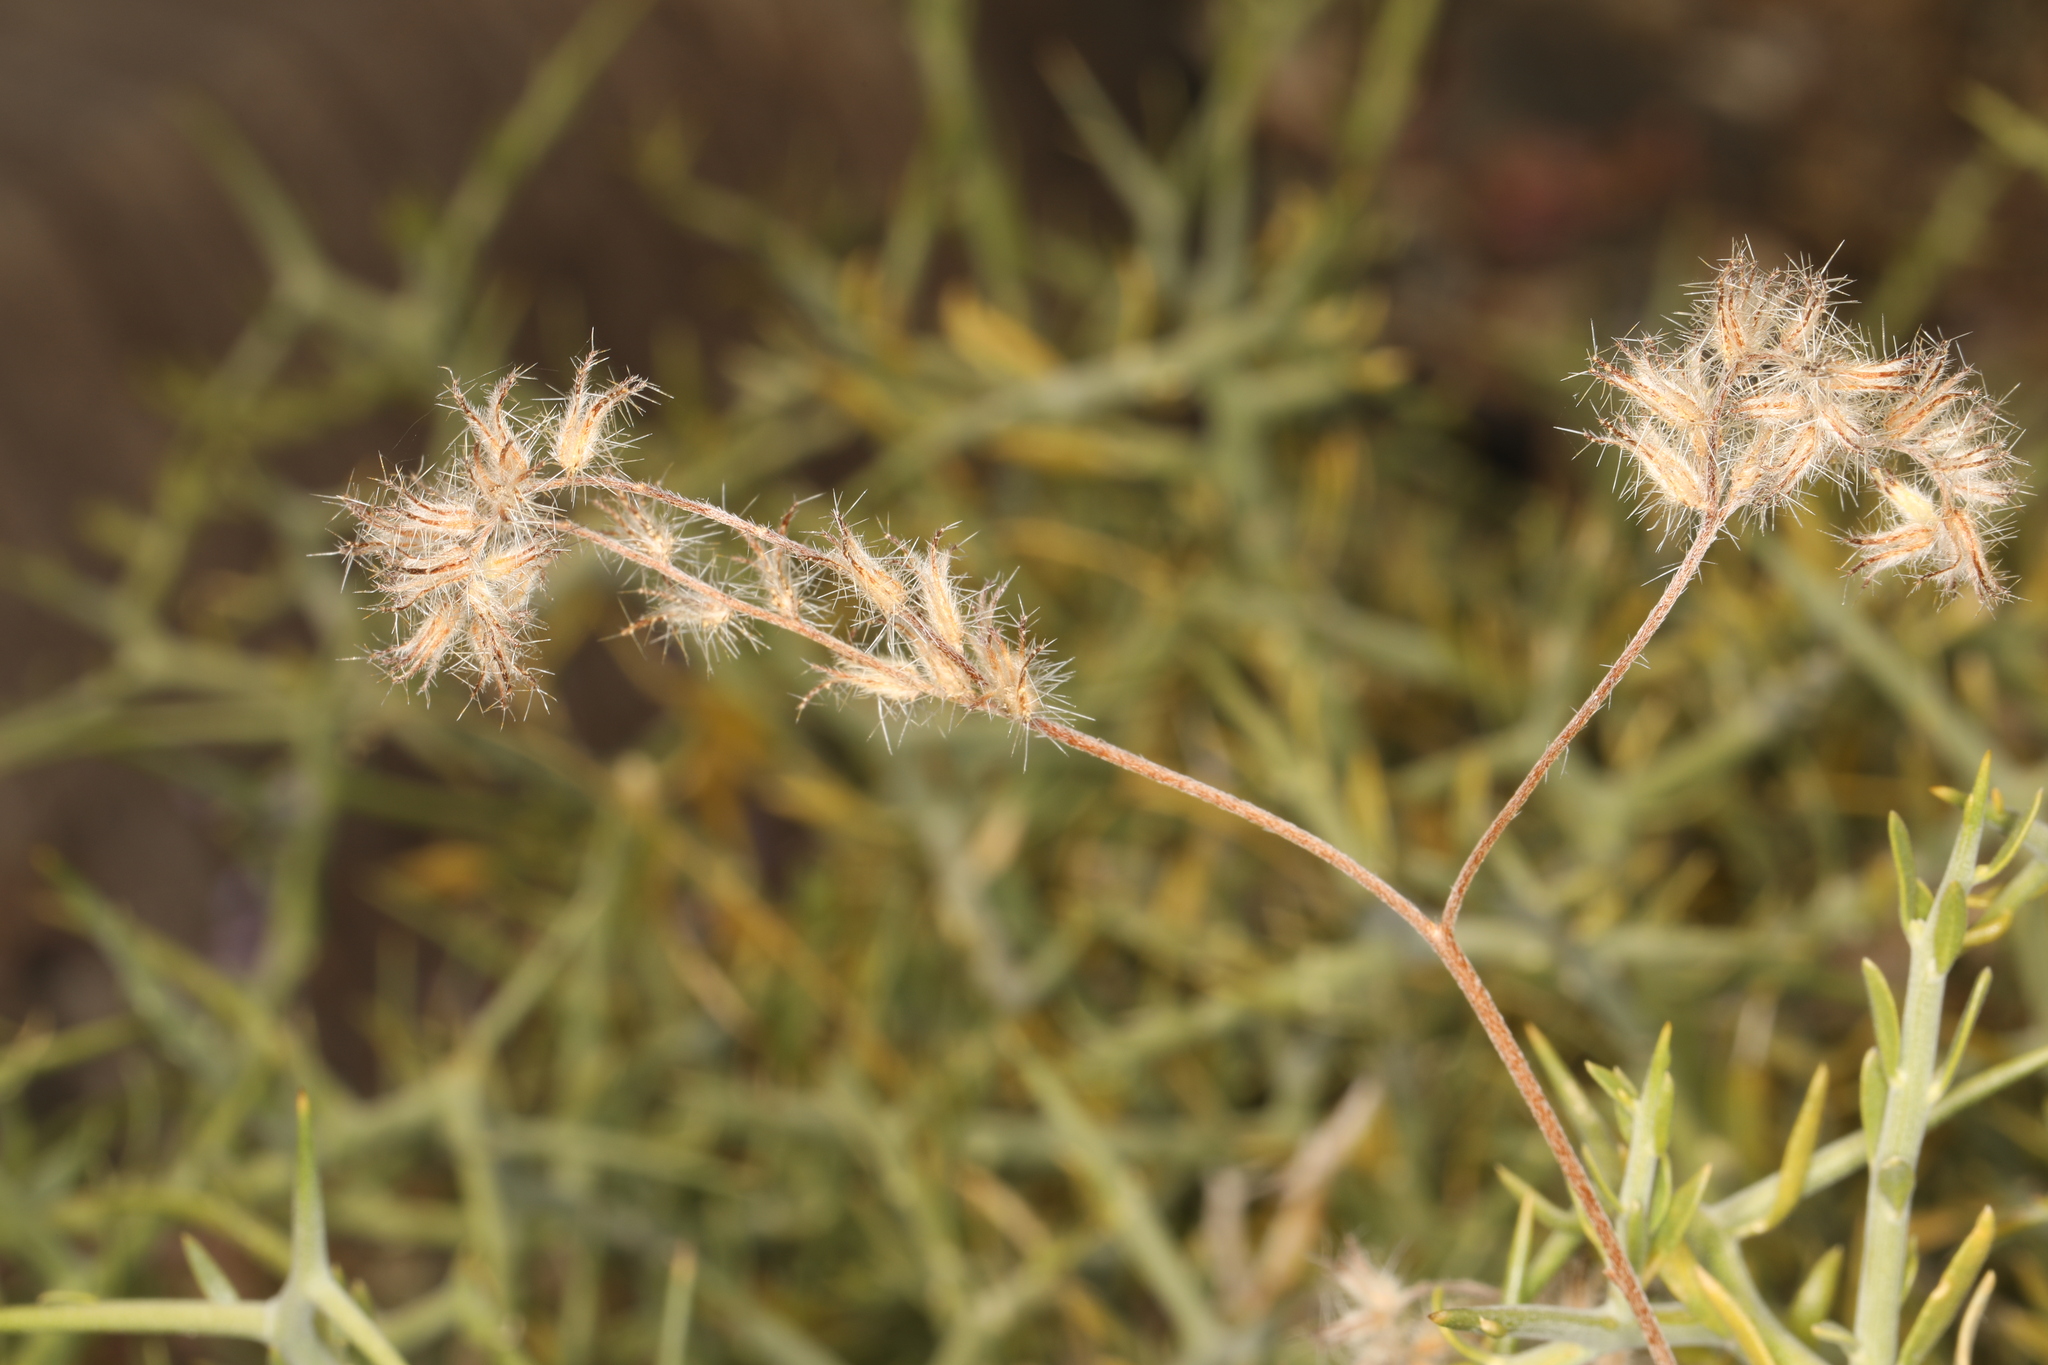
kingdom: Plantae
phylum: Tracheophyta
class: Magnoliopsida
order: Boraginales
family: Boraginaceae
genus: Cryptantha
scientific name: Cryptantha nevadensis
